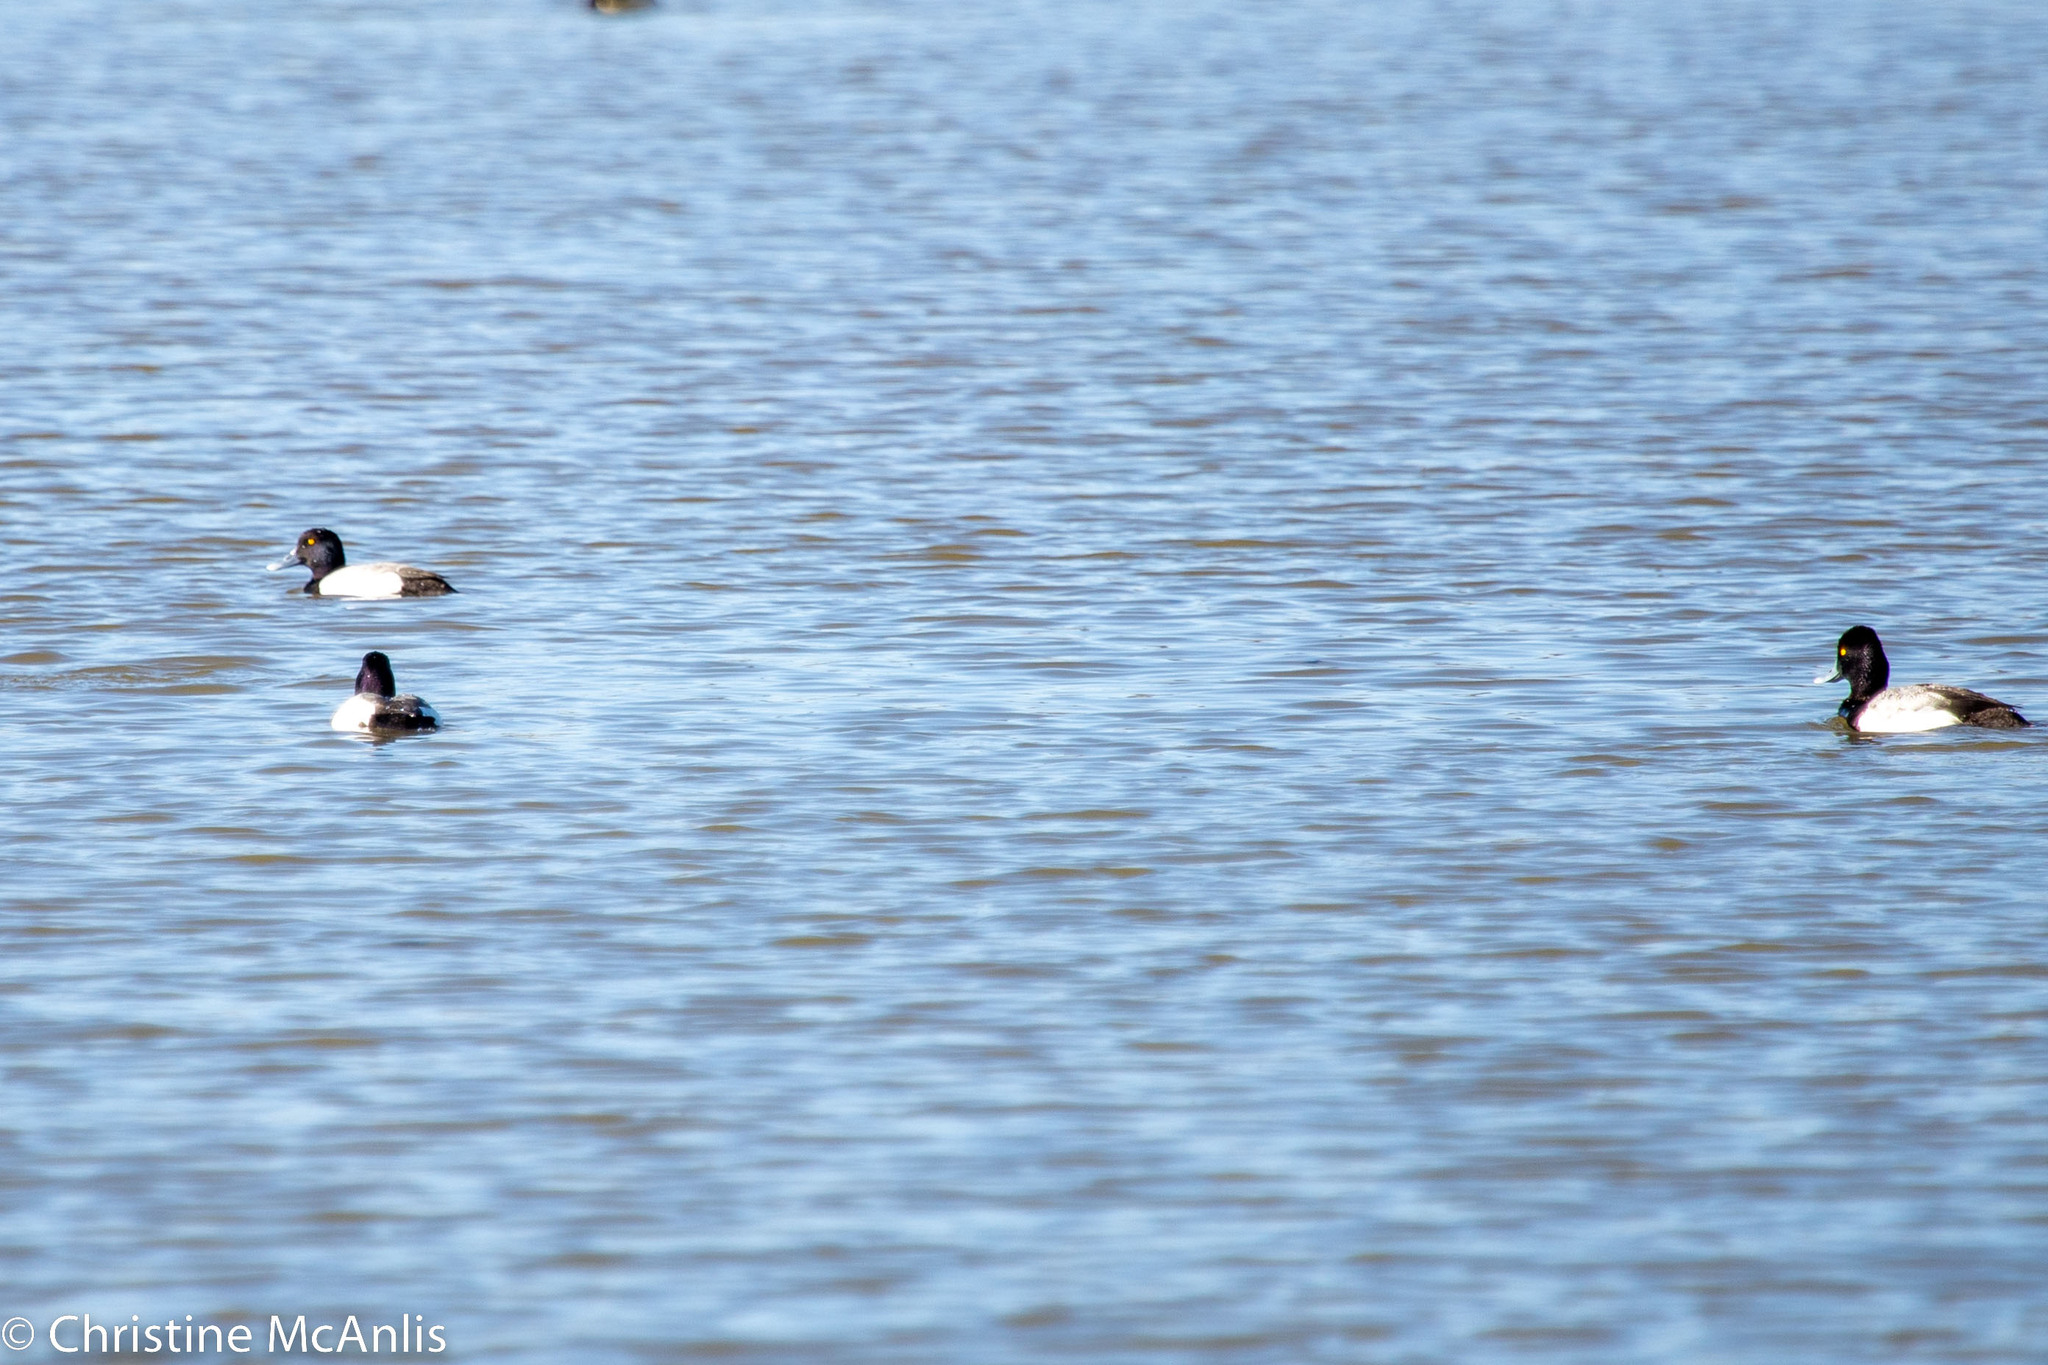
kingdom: Animalia
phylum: Chordata
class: Aves
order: Anseriformes
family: Anatidae
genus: Aythya
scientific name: Aythya affinis
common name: Lesser scaup
